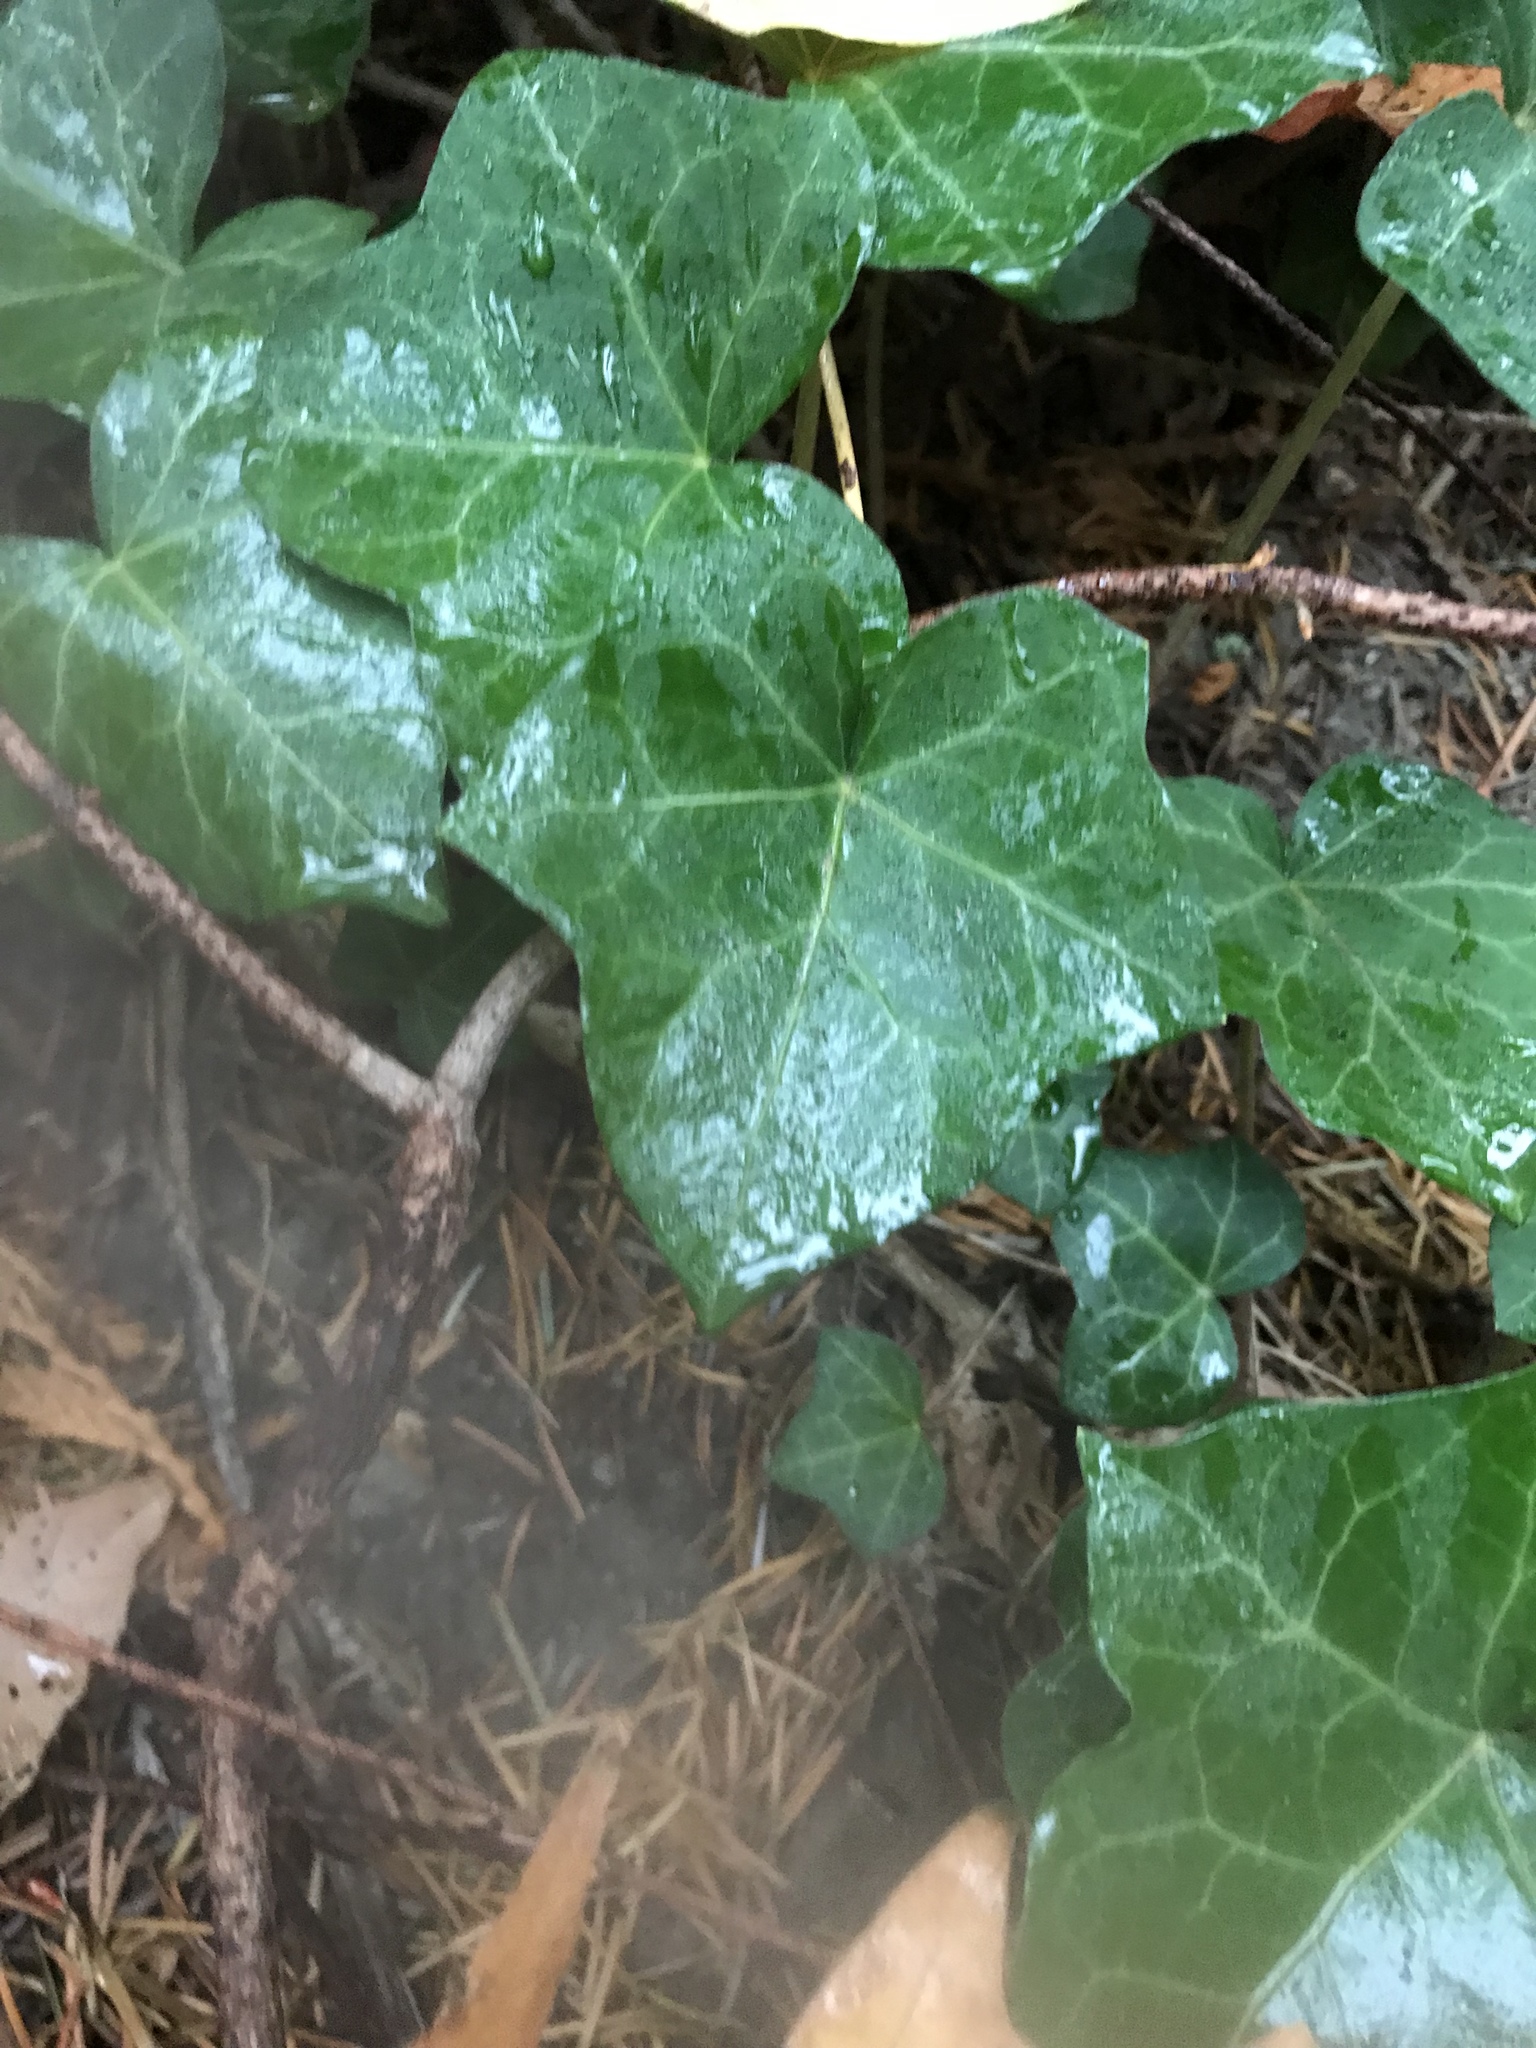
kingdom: Plantae
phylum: Tracheophyta
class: Magnoliopsida
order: Apiales
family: Araliaceae
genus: Hedera
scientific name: Hedera helix
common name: Ivy
